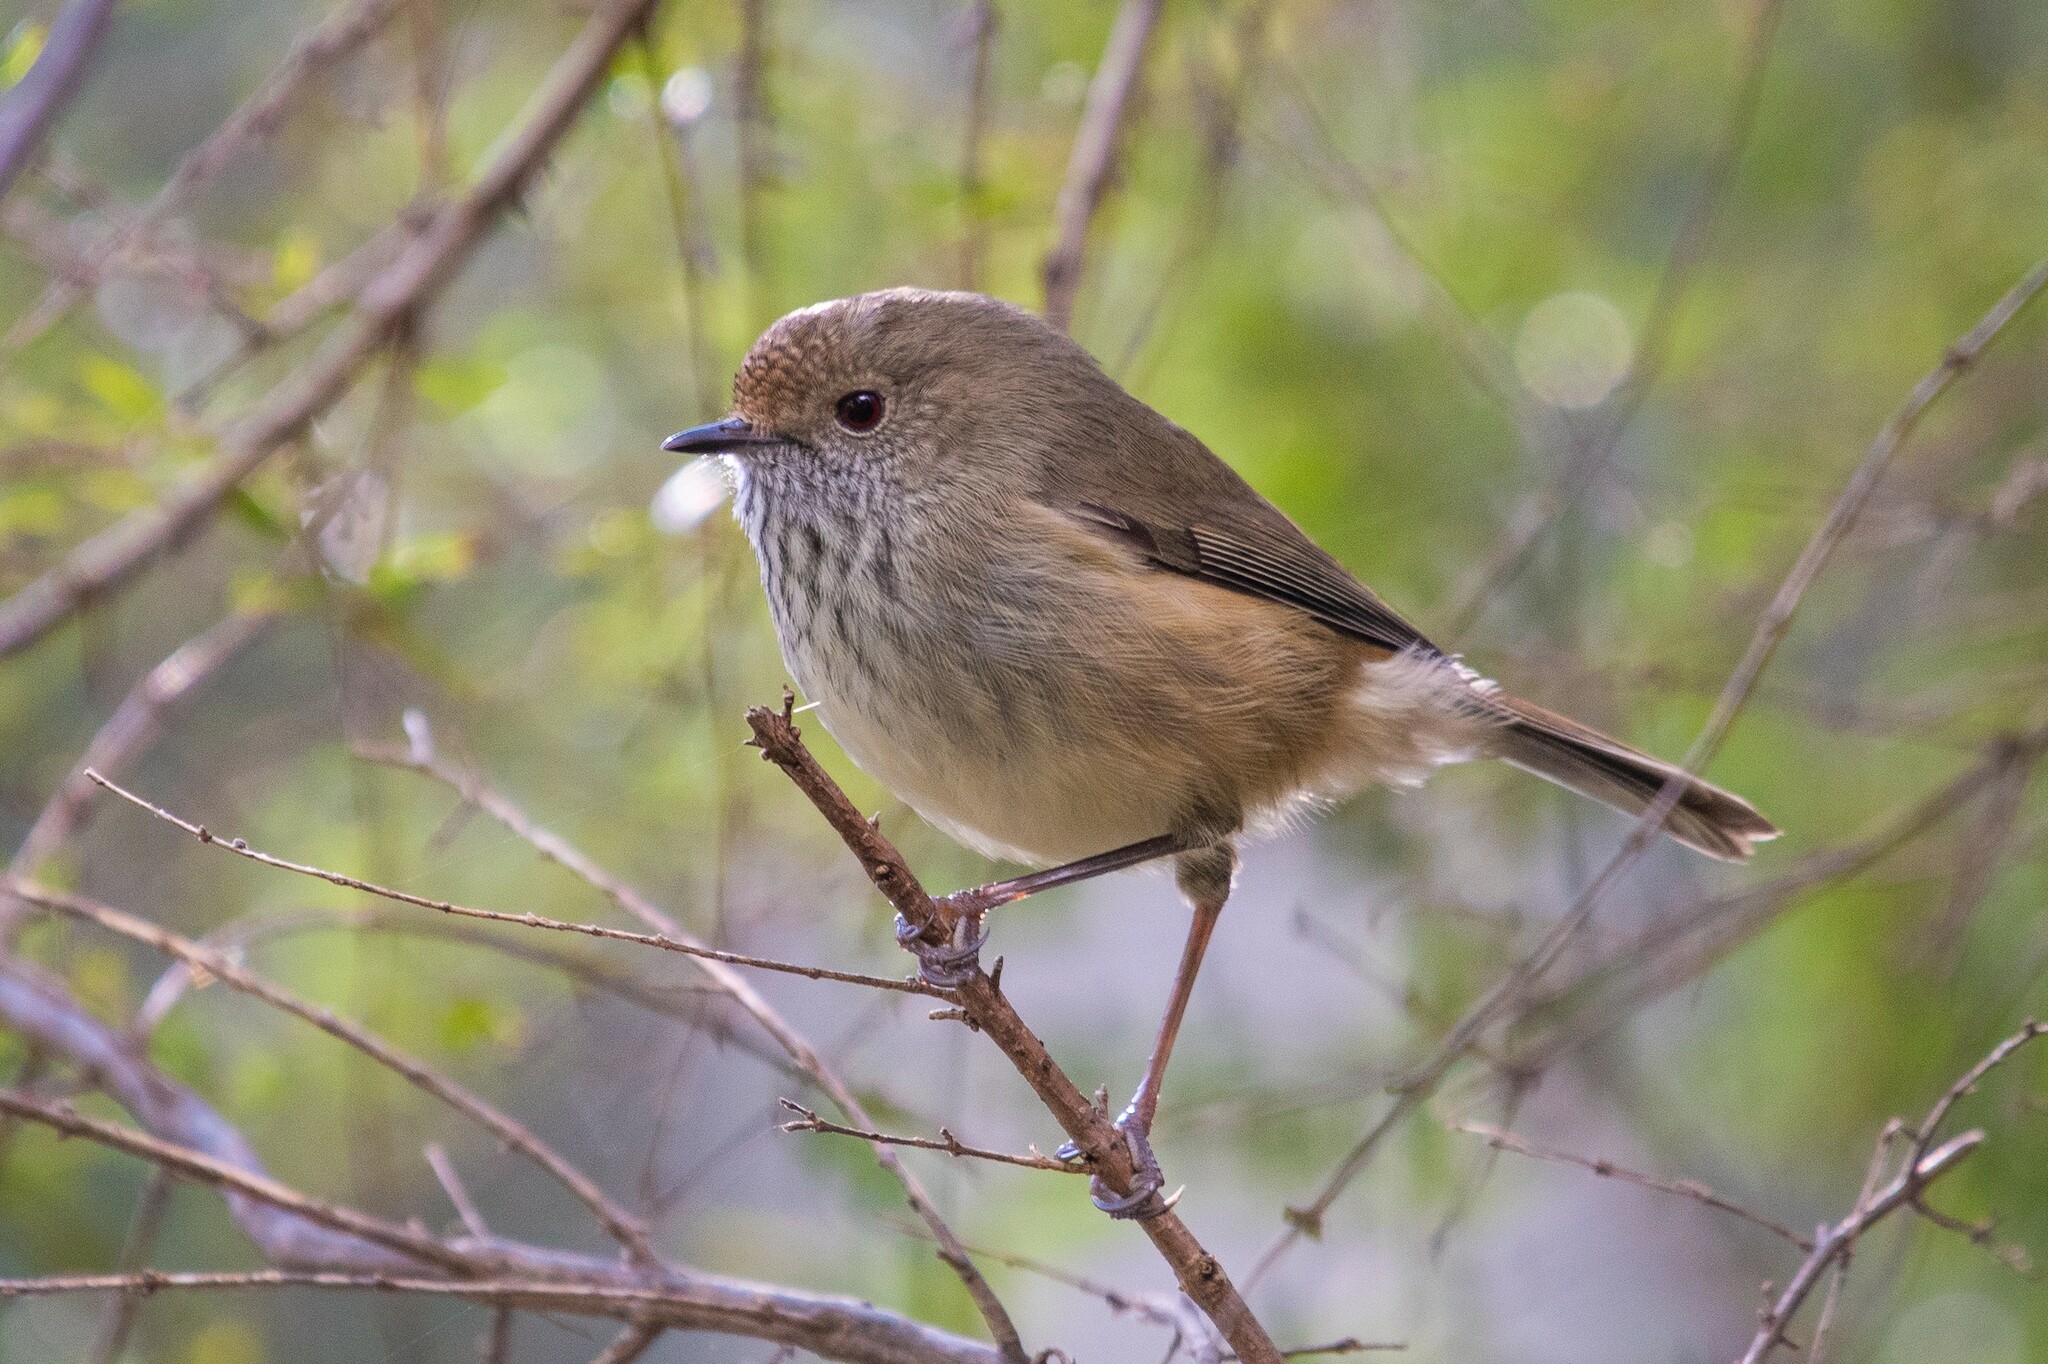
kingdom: Animalia
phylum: Chordata
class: Aves
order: Passeriformes
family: Acanthizidae
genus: Acanthiza
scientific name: Acanthiza pusilla
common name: Brown thornbill
